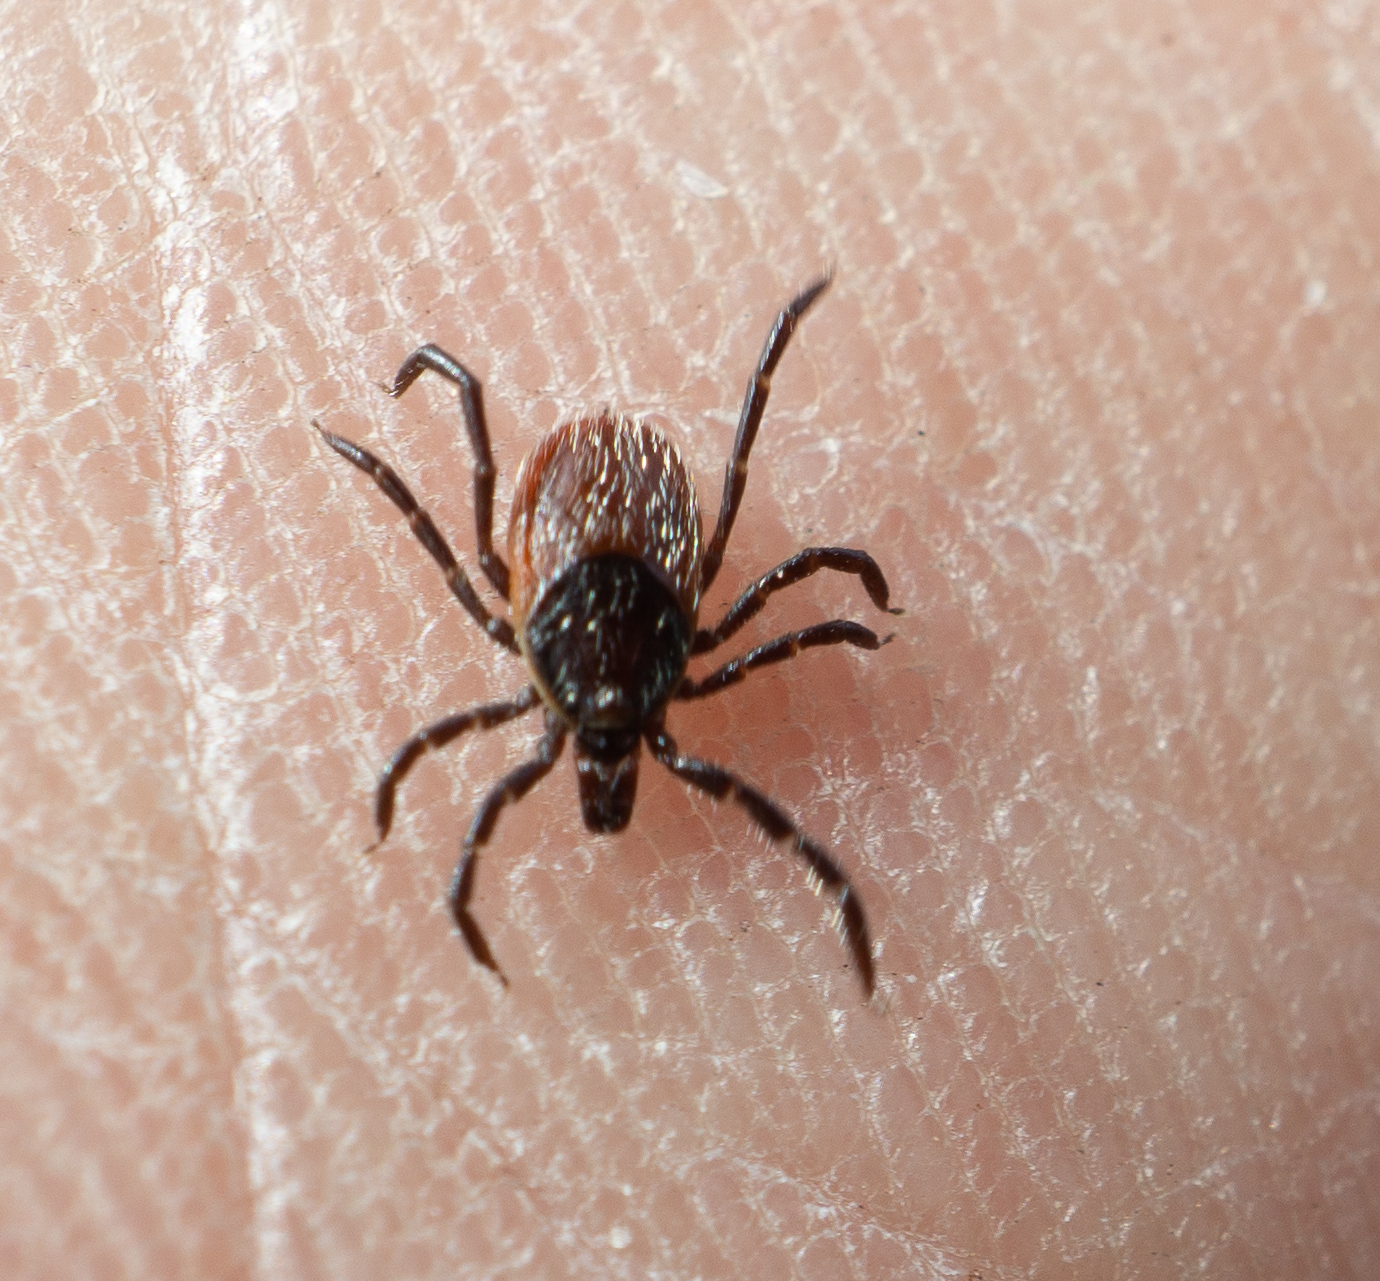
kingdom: Animalia
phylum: Arthropoda
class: Arachnida
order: Ixodida
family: Ixodidae
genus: Ixodes
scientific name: Ixodes pacificus
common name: California black-legged tick
